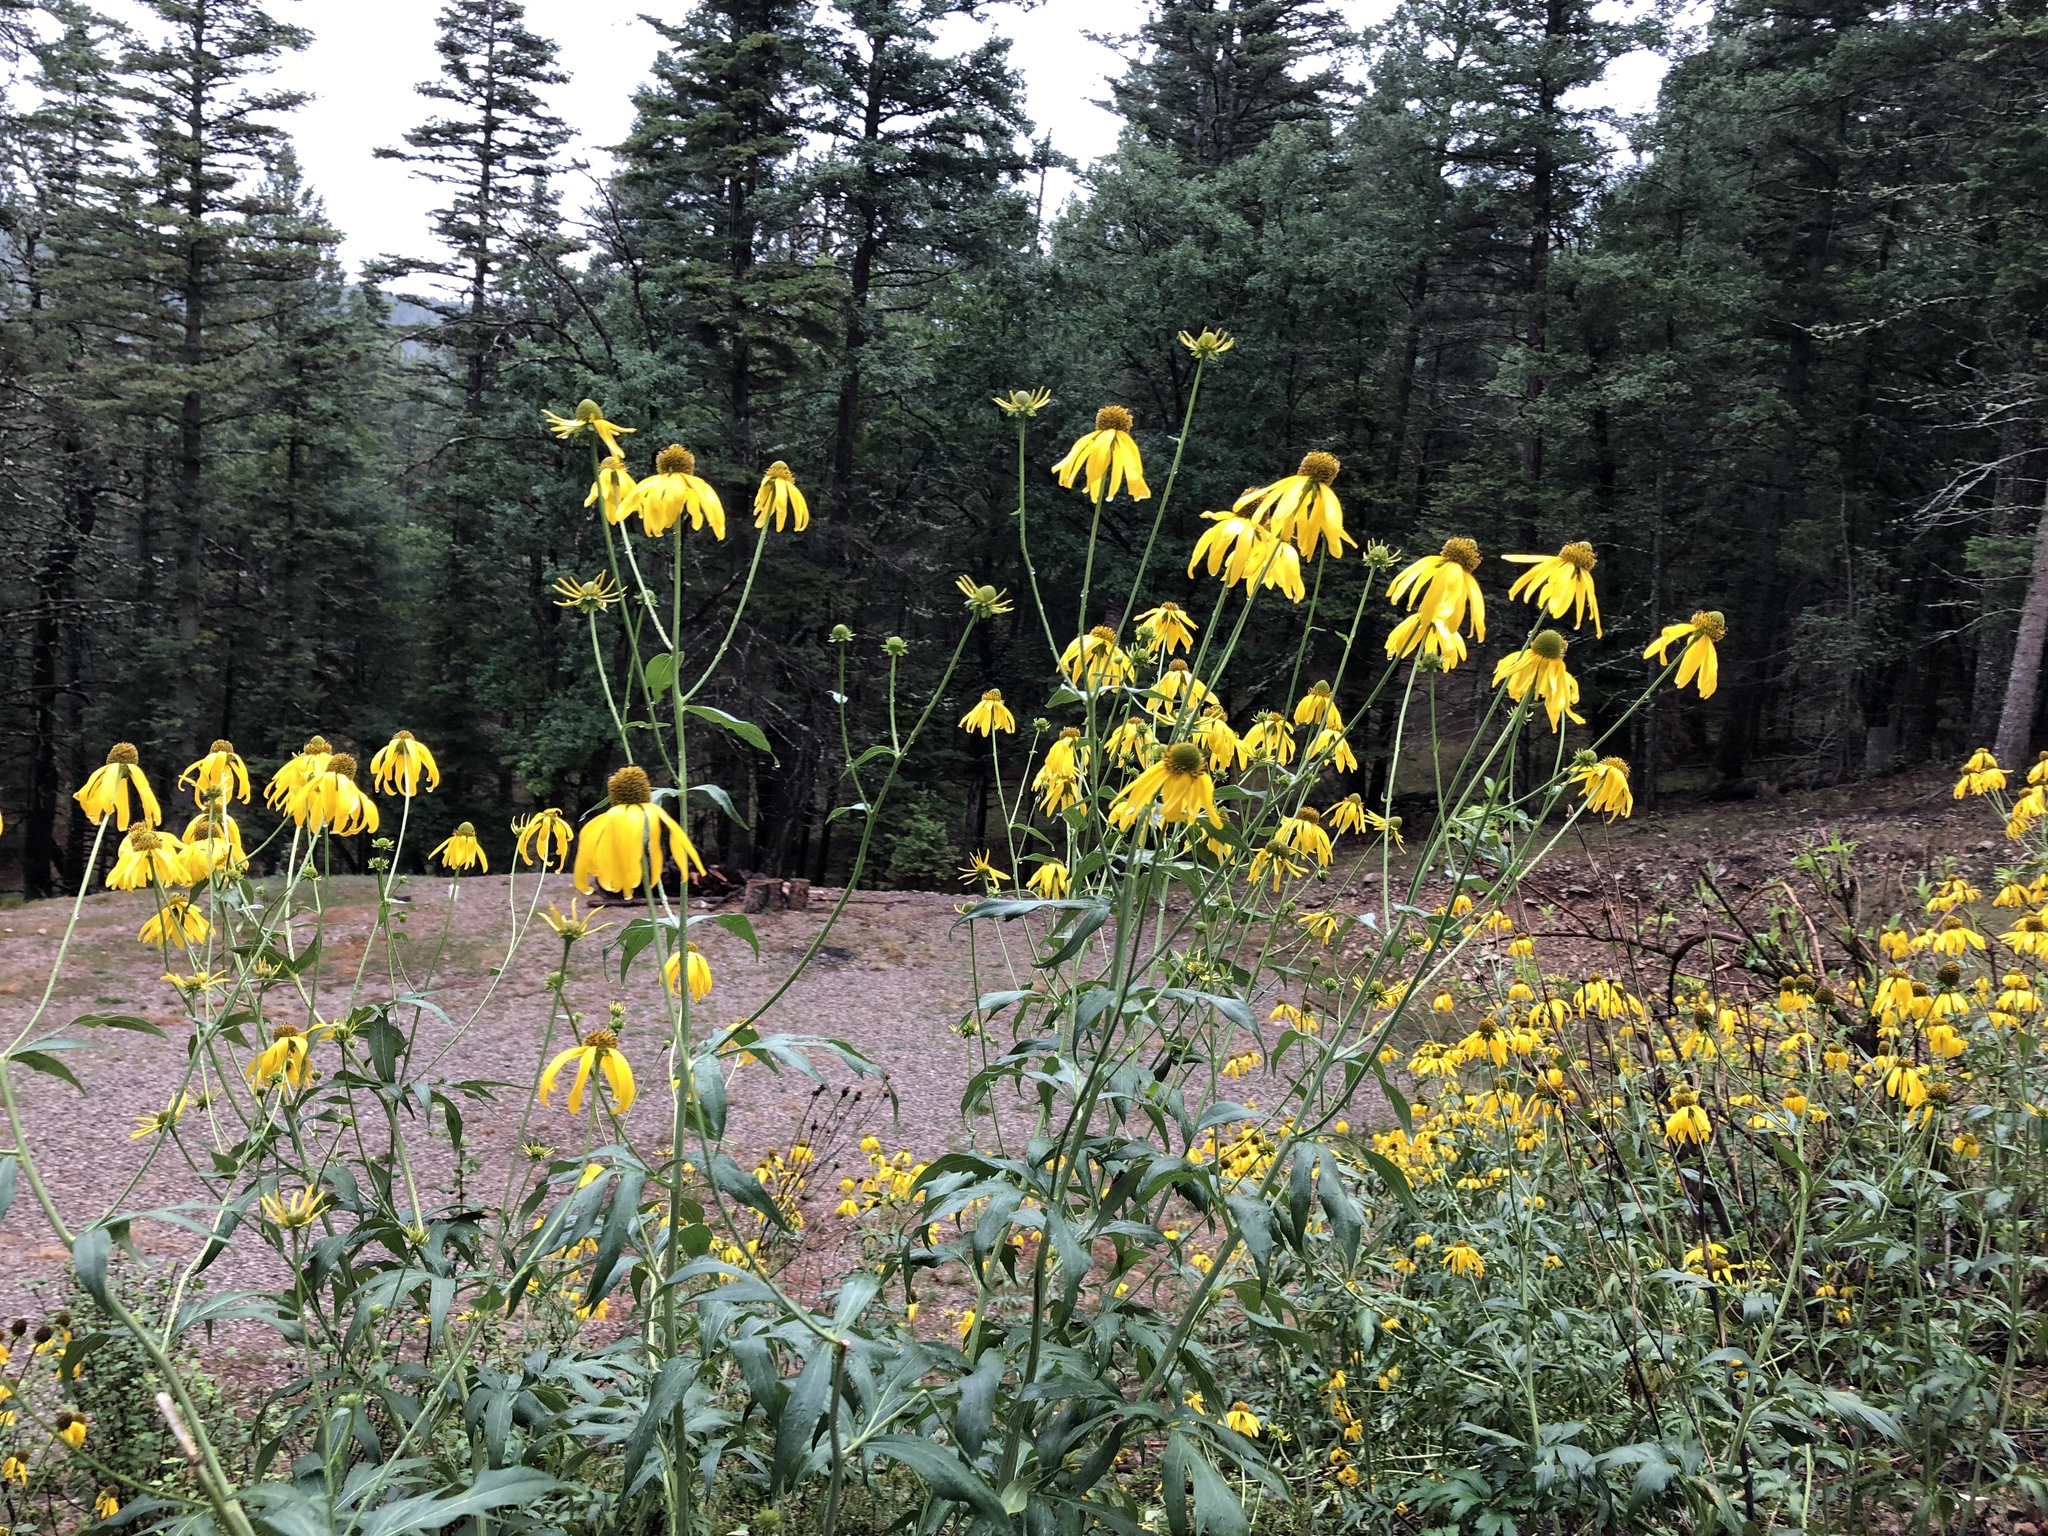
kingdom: Plantae
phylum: Tracheophyta
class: Magnoliopsida
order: Asterales
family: Asteraceae
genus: Rudbeckia
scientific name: Rudbeckia laciniata
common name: Coneflower
